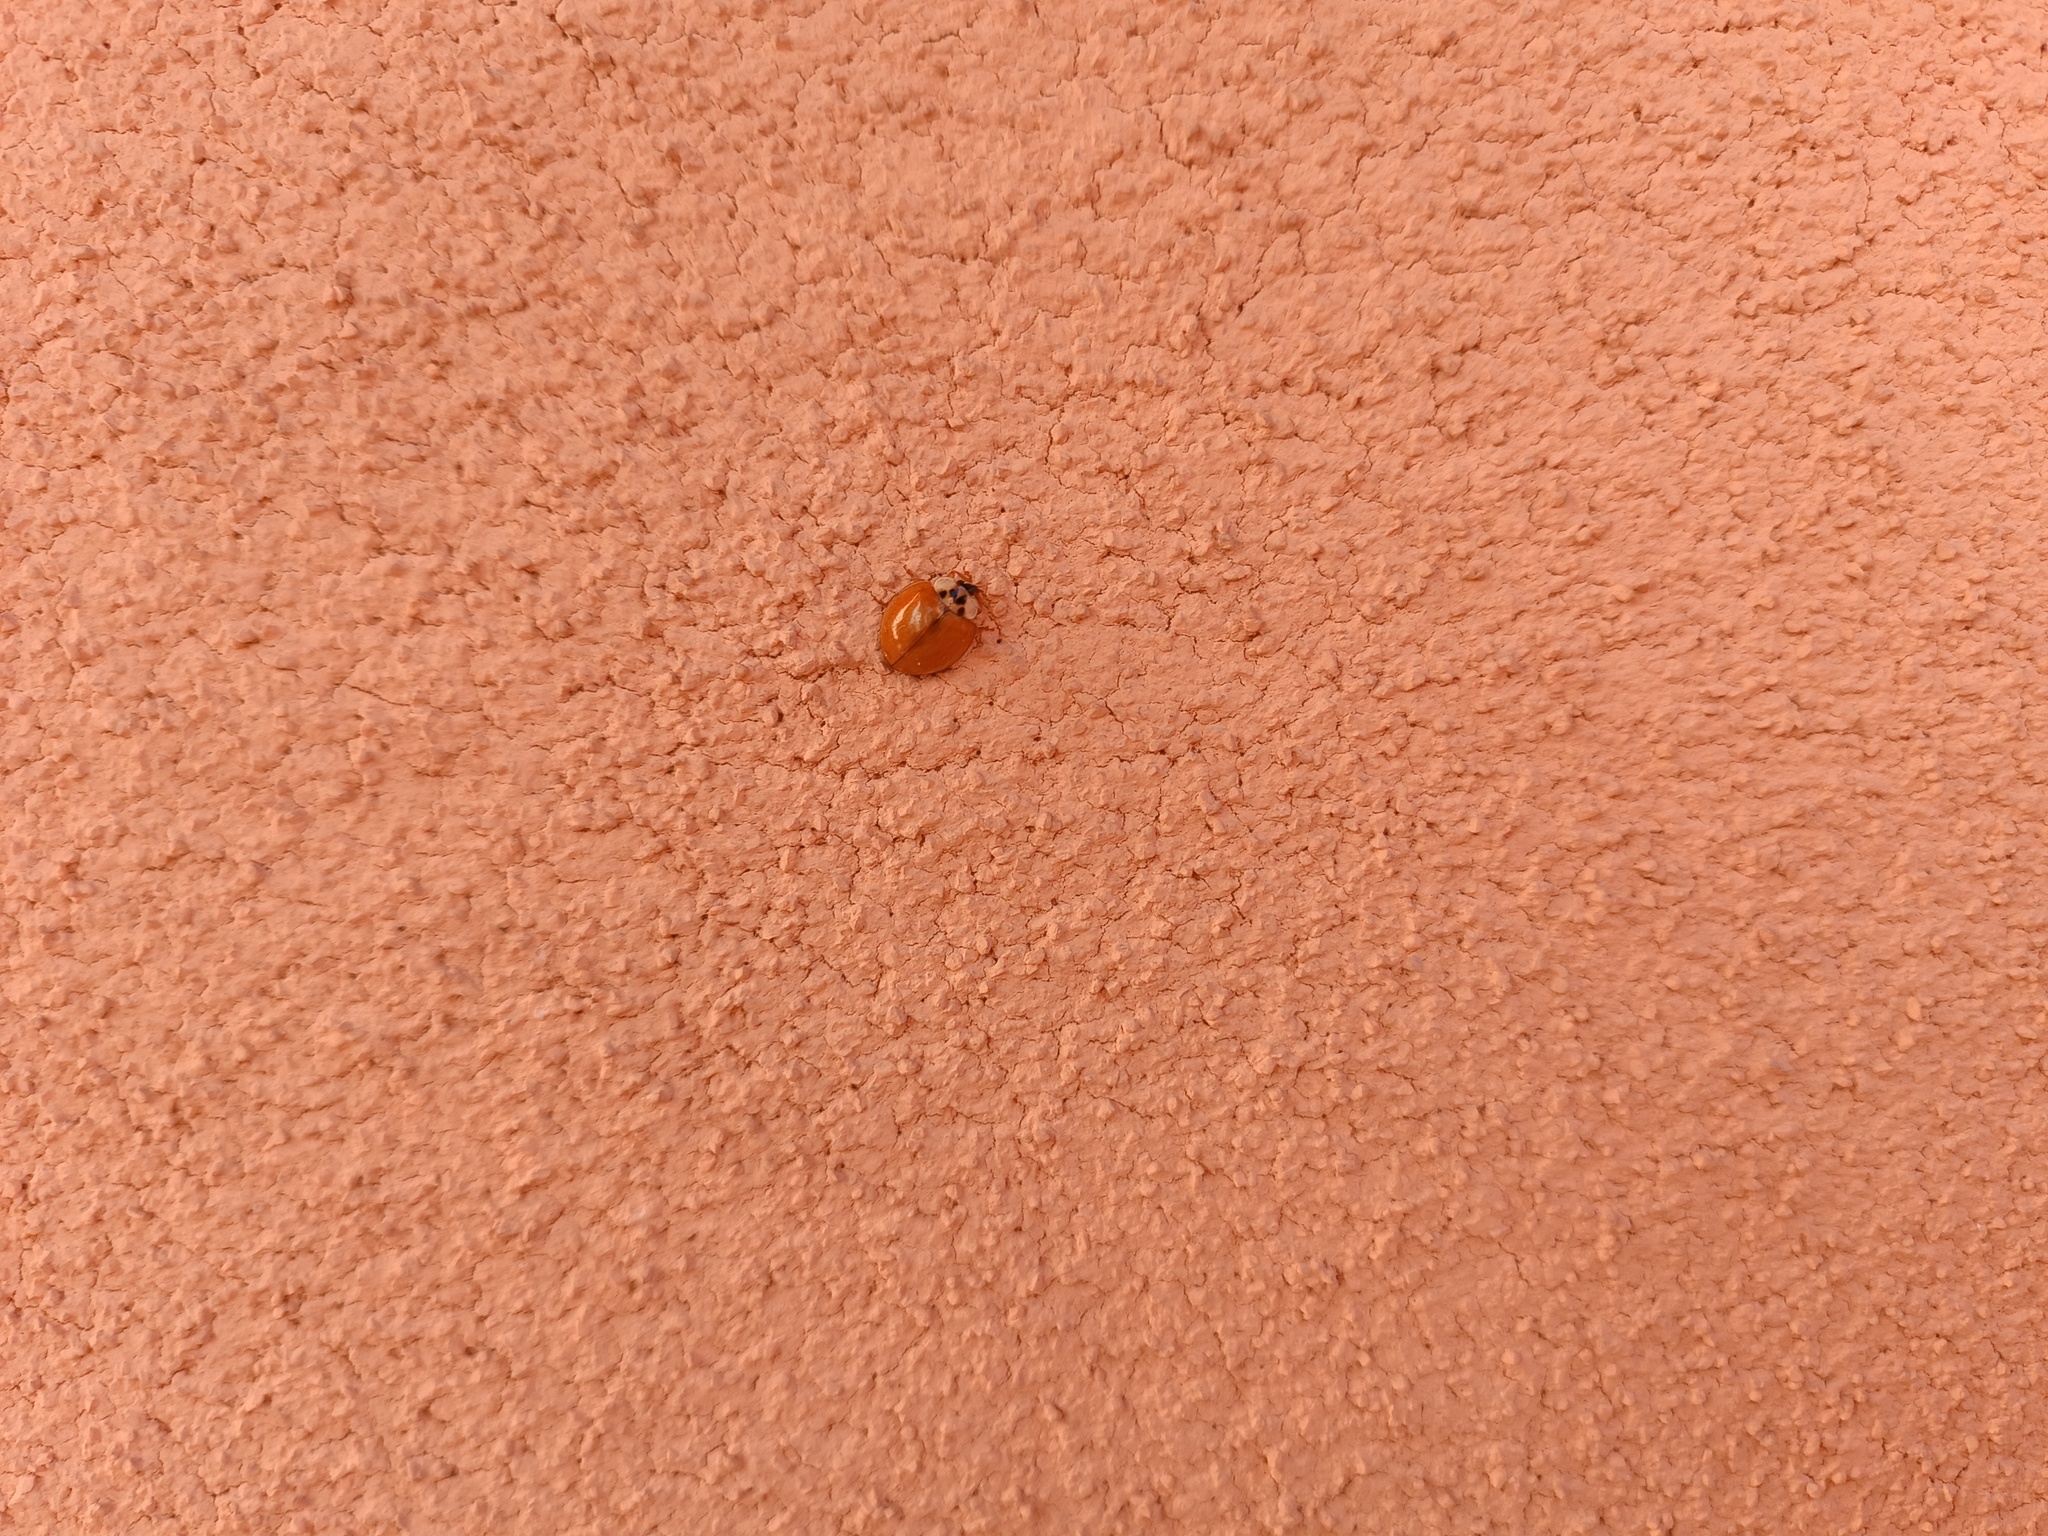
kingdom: Animalia
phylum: Arthropoda
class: Insecta
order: Coleoptera
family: Coccinellidae
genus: Harmonia
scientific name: Harmonia axyridis
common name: Harlequin ladybird
